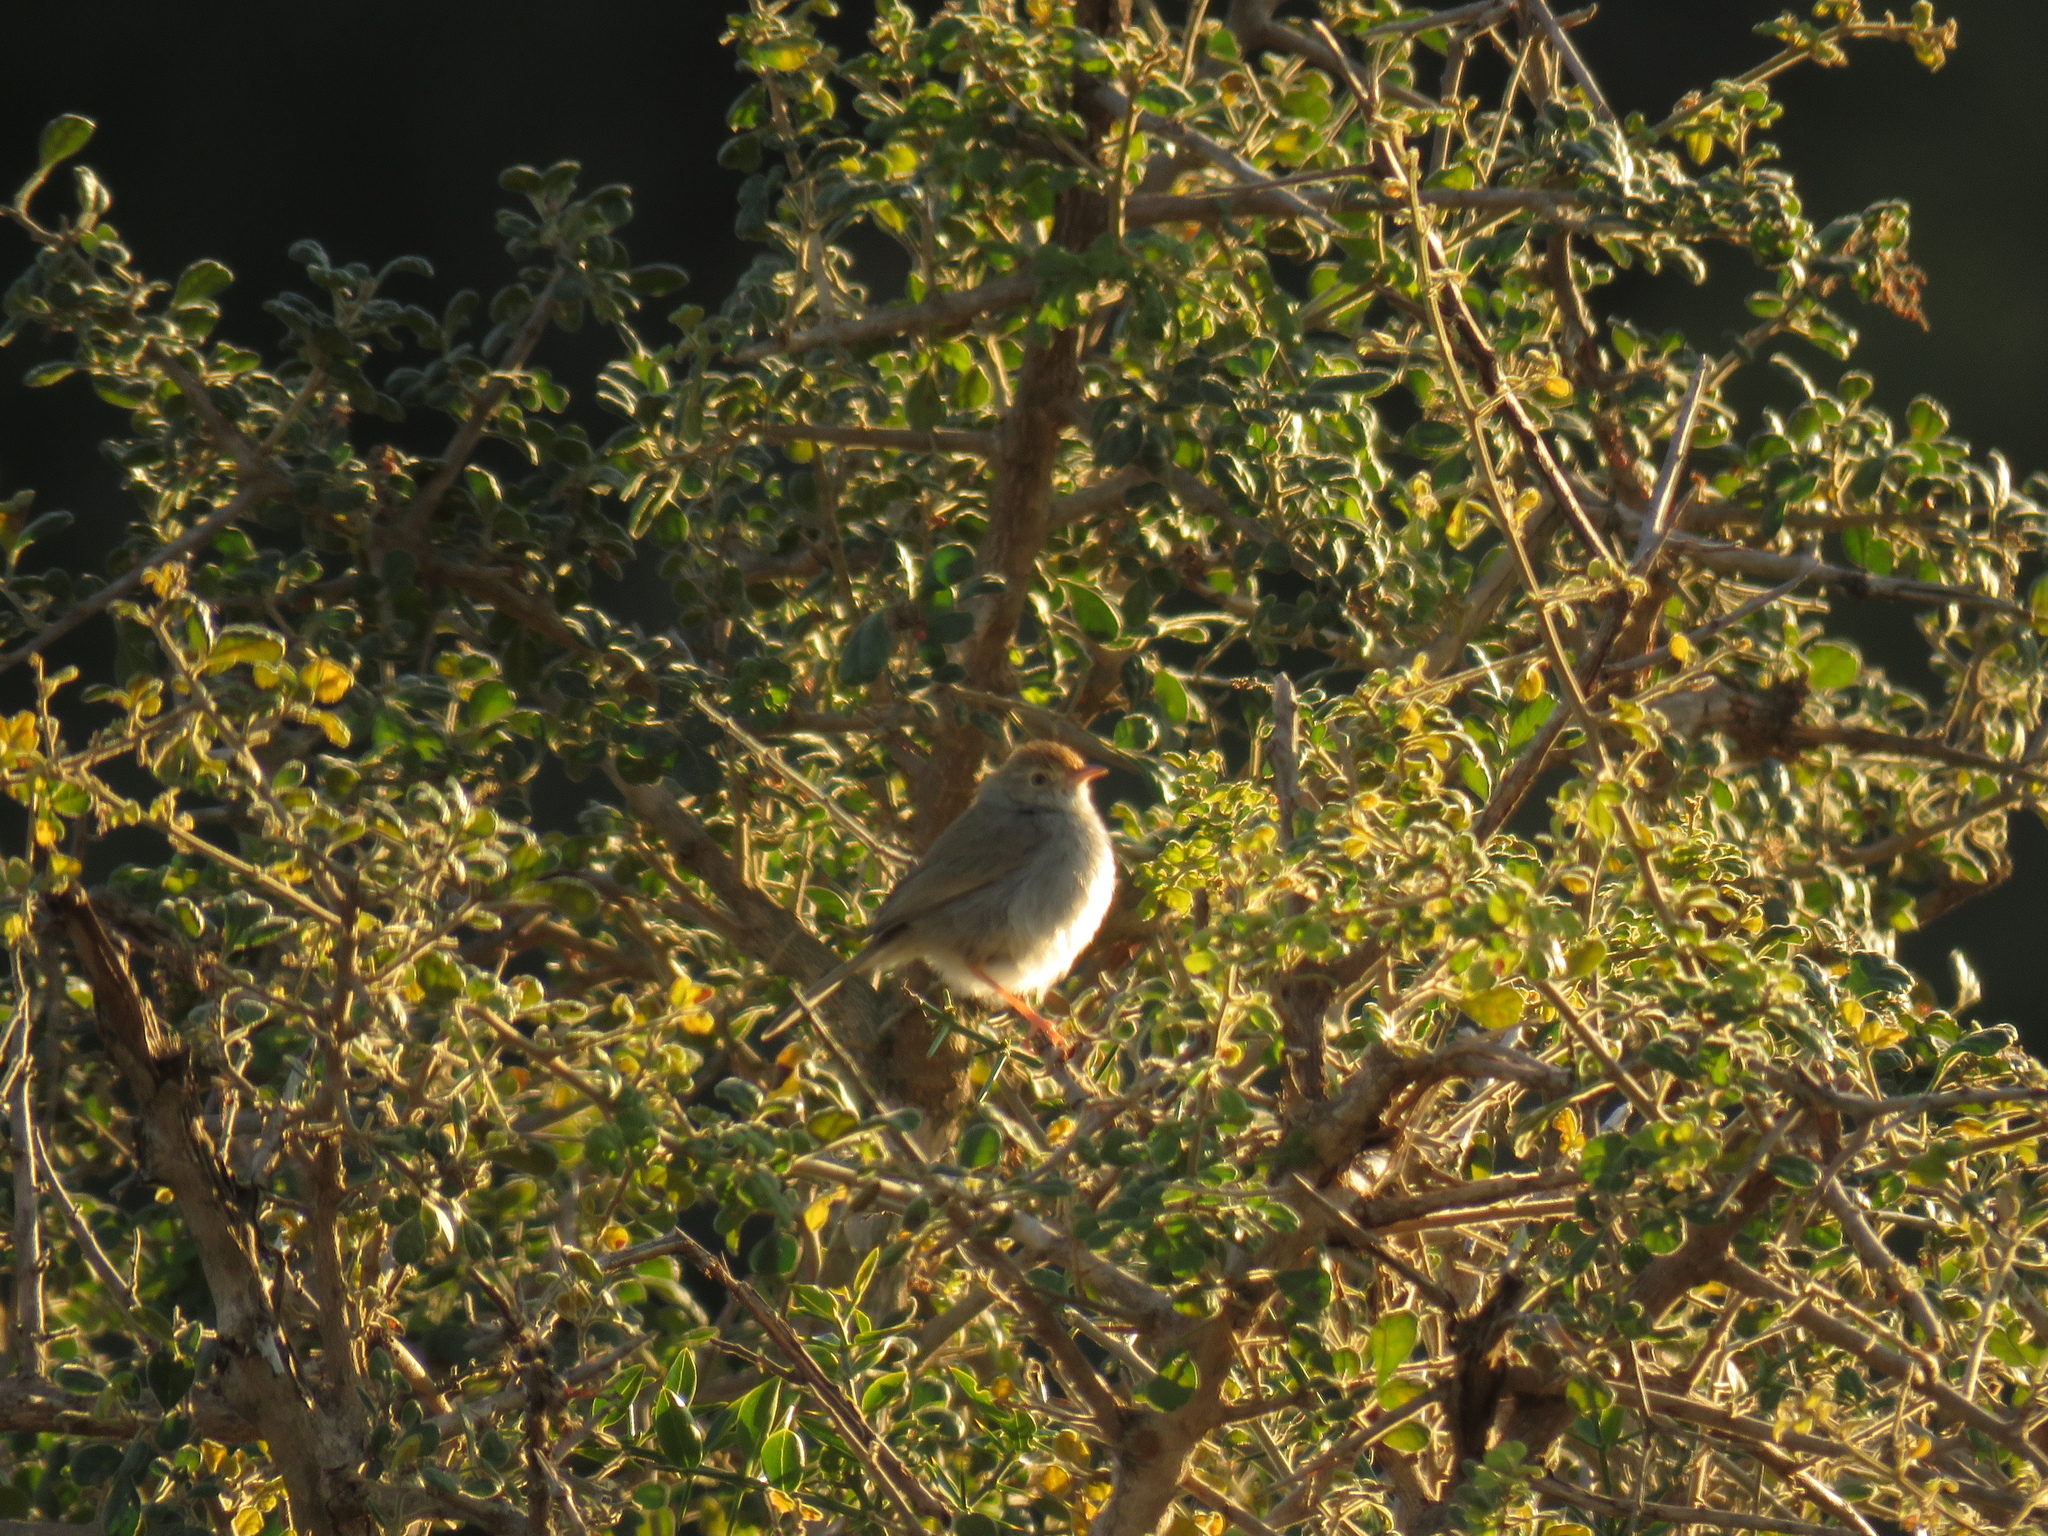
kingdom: Animalia
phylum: Chordata
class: Aves
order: Passeriformes
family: Cisticolidae
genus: Cisticola
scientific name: Cisticola fulvicapilla
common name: Neddicky
